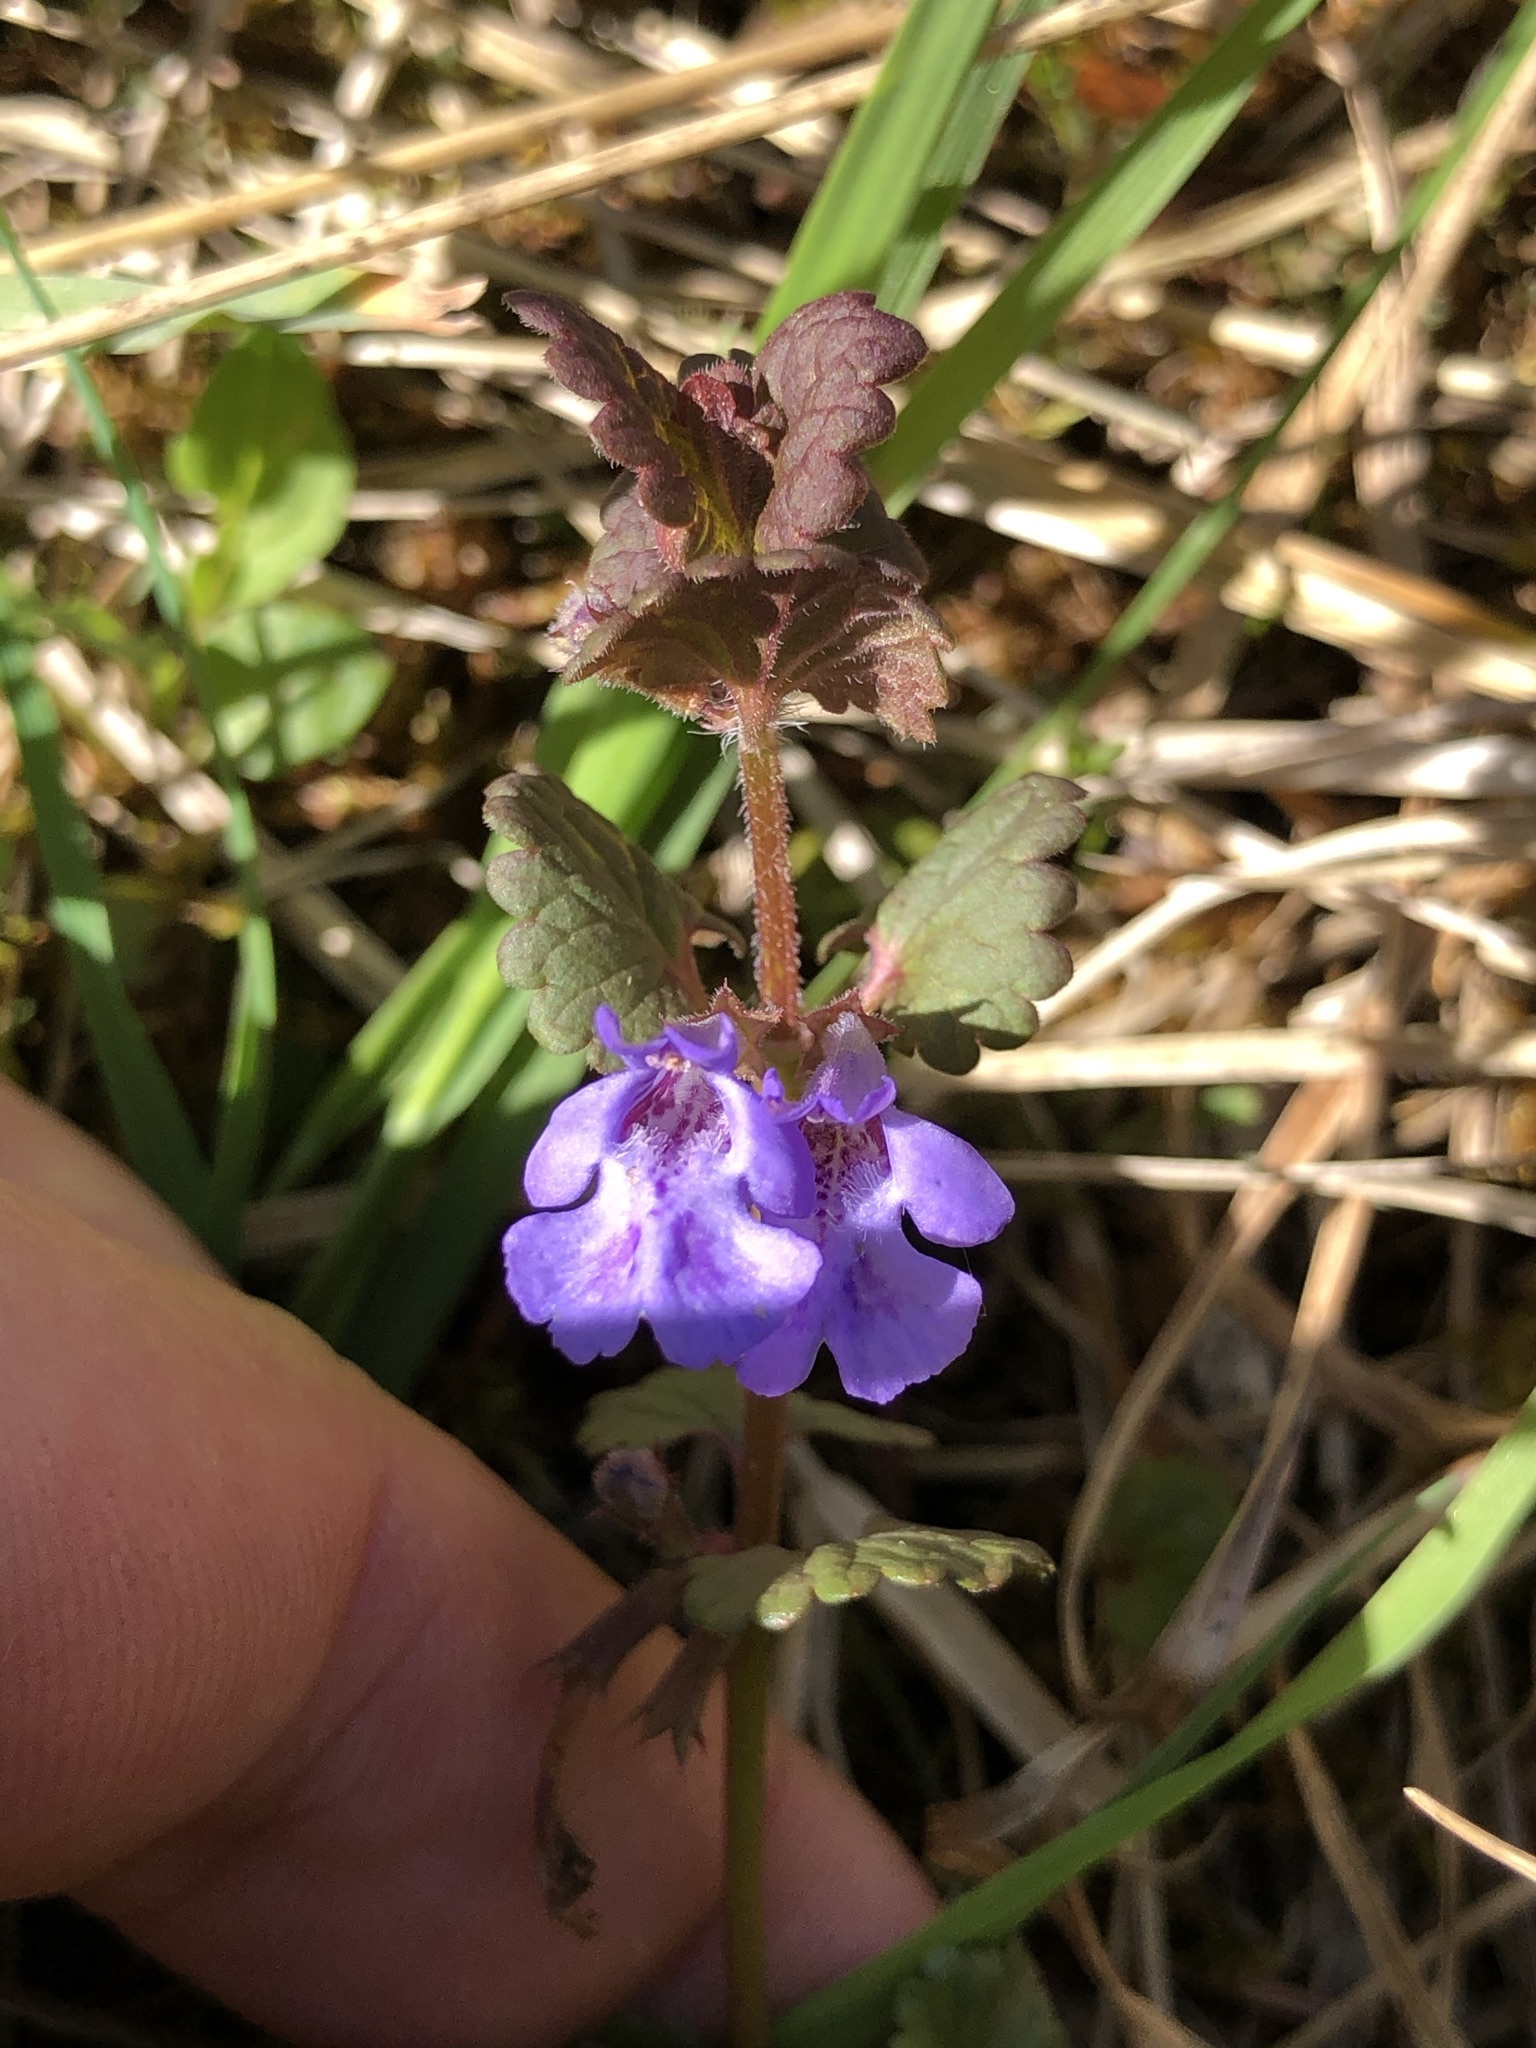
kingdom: Plantae
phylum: Tracheophyta
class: Magnoliopsida
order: Lamiales
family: Lamiaceae
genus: Glechoma
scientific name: Glechoma hederacea
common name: Ground ivy
